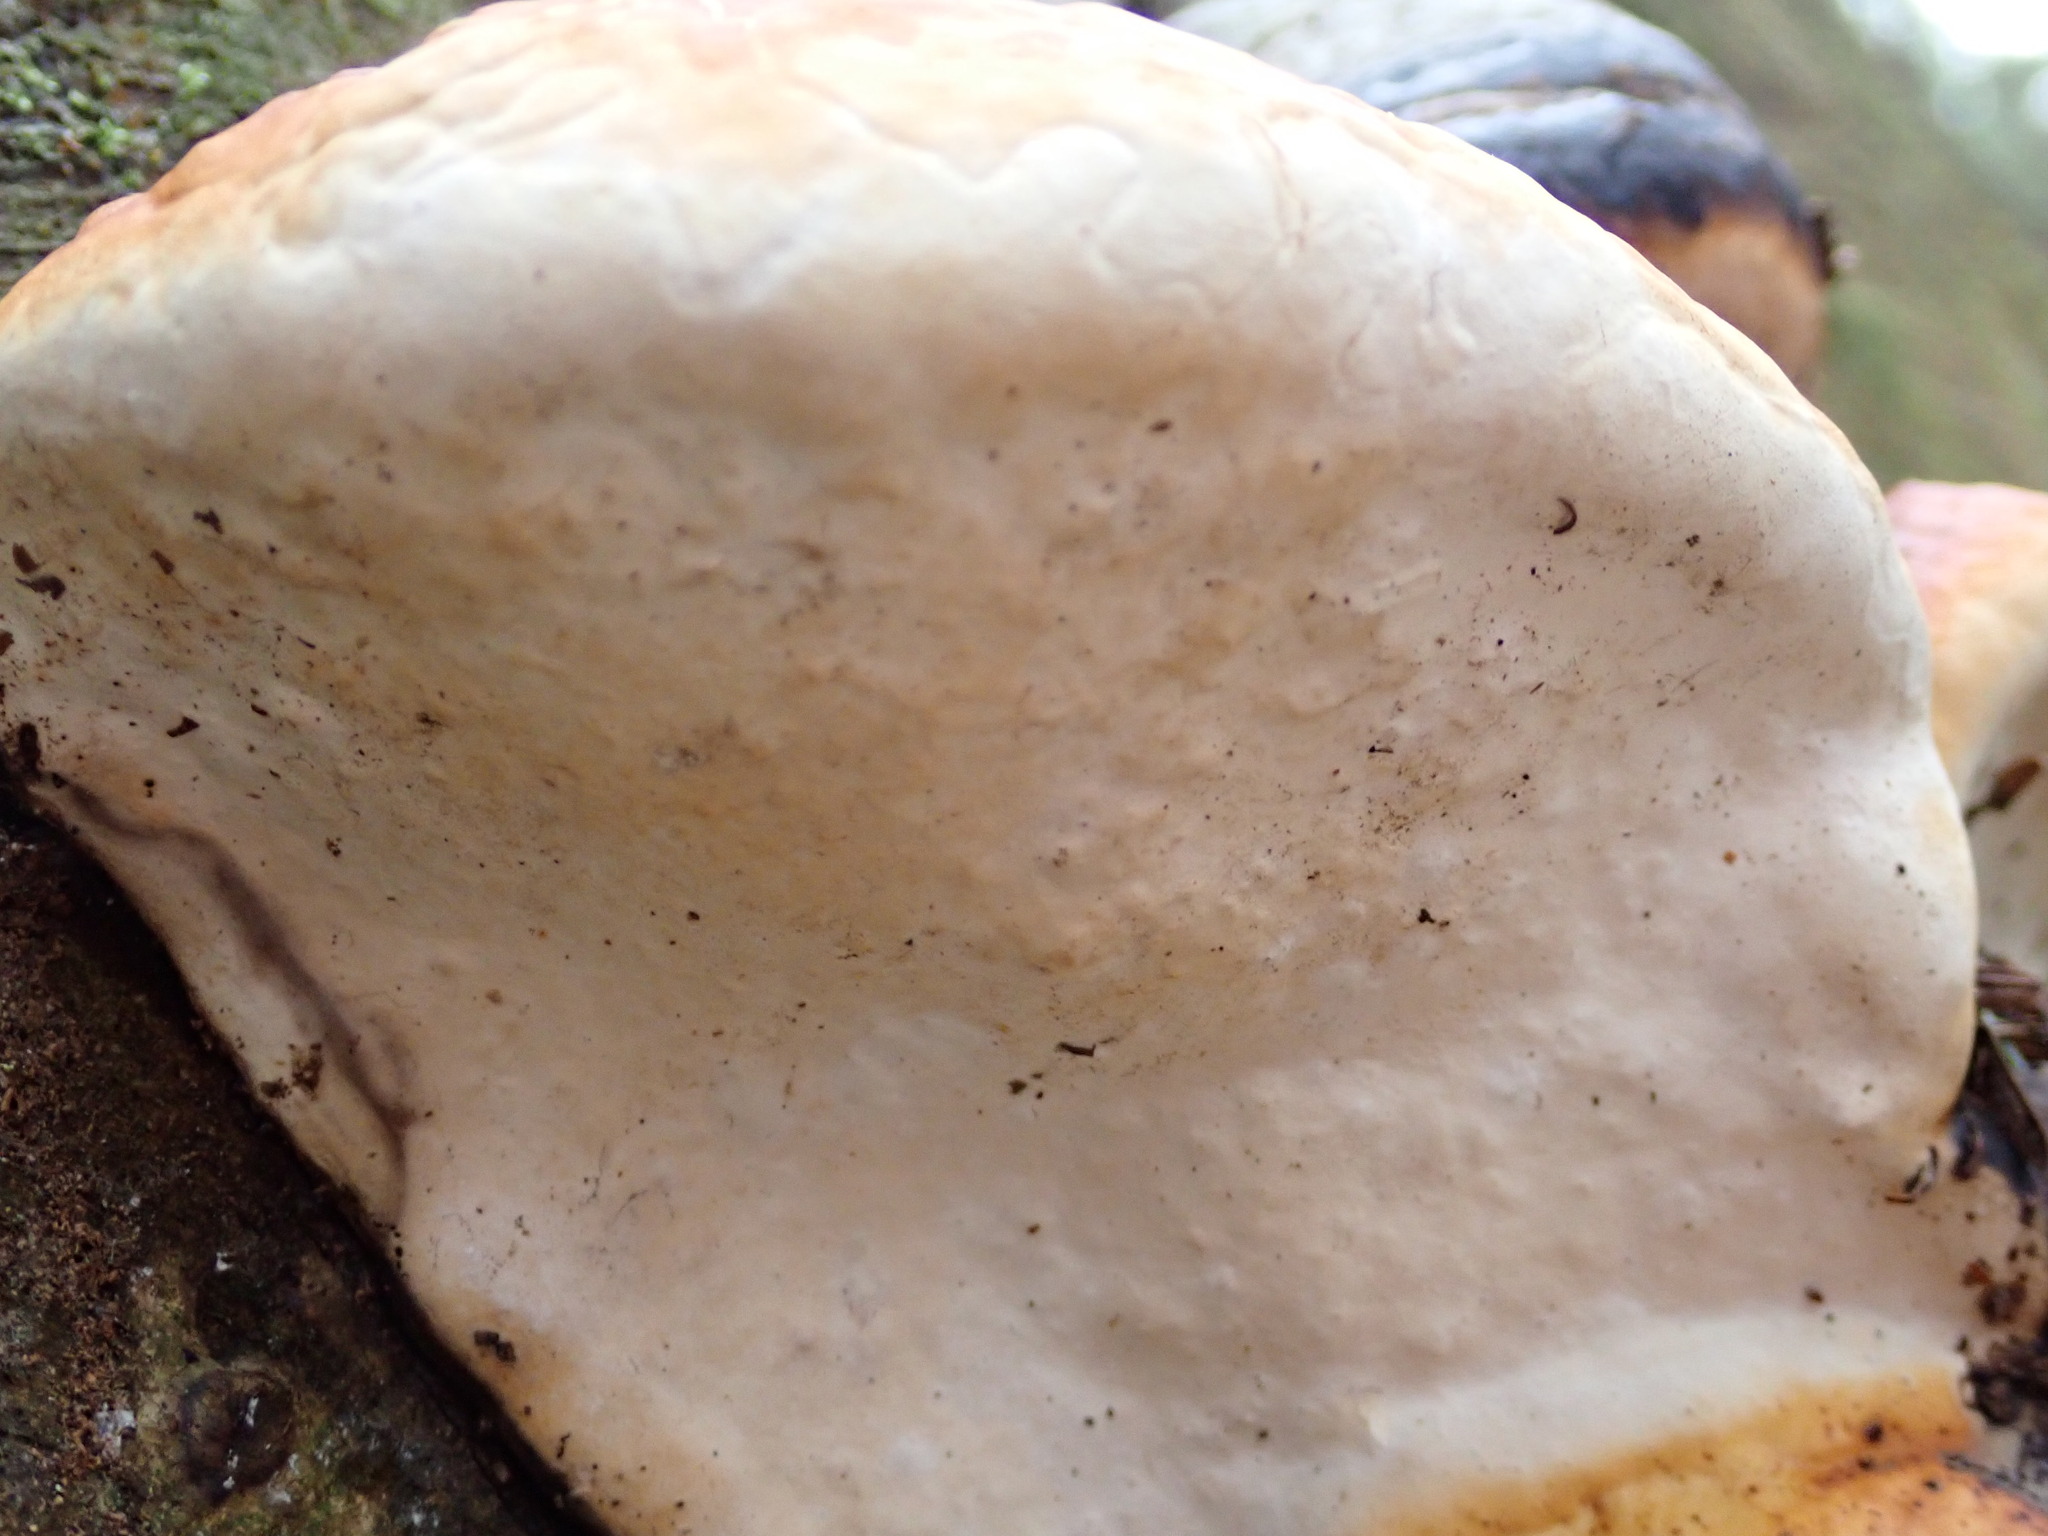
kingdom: Fungi
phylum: Basidiomycota
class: Agaricomycetes
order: Polyporales
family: Fomitopsidaceae
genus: Fomitopsis
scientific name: Fomitopsis mounceae
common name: Northern red belt
